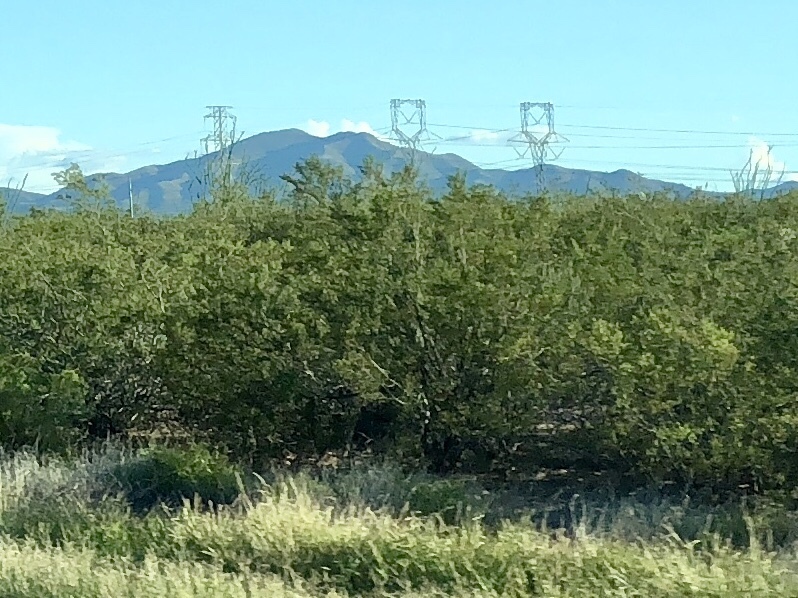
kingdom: Plantae
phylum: Tracheophyta
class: Magnoliopsida
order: Zygophyllales
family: Zygophyllaceae
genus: Larrea
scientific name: Larrea tridentata
